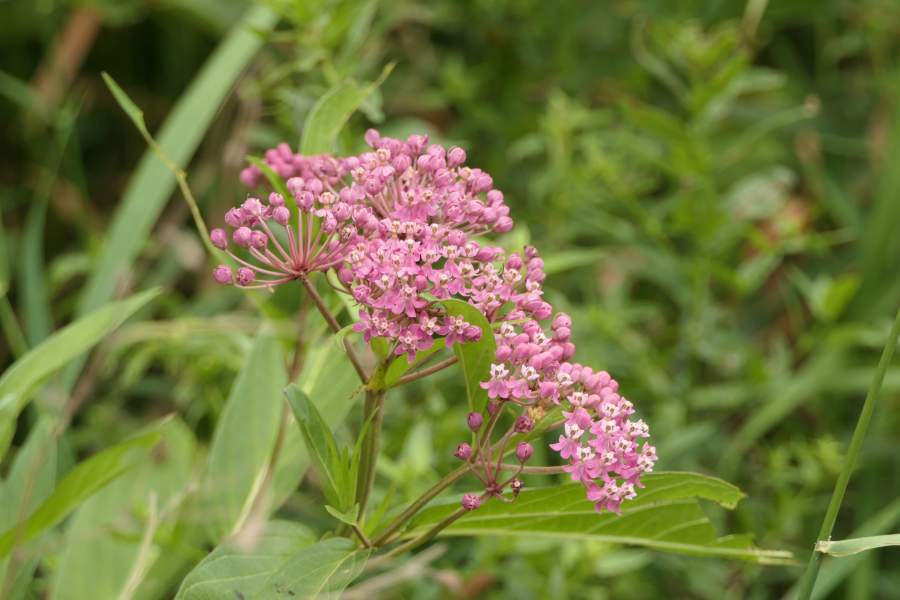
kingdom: Plantae
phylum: Tracheophyta
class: Magnoliopsida
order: Gentianales
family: Apocynaceae
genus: Asclepias
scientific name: Asclepias incarnata
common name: Swamp milkweed
